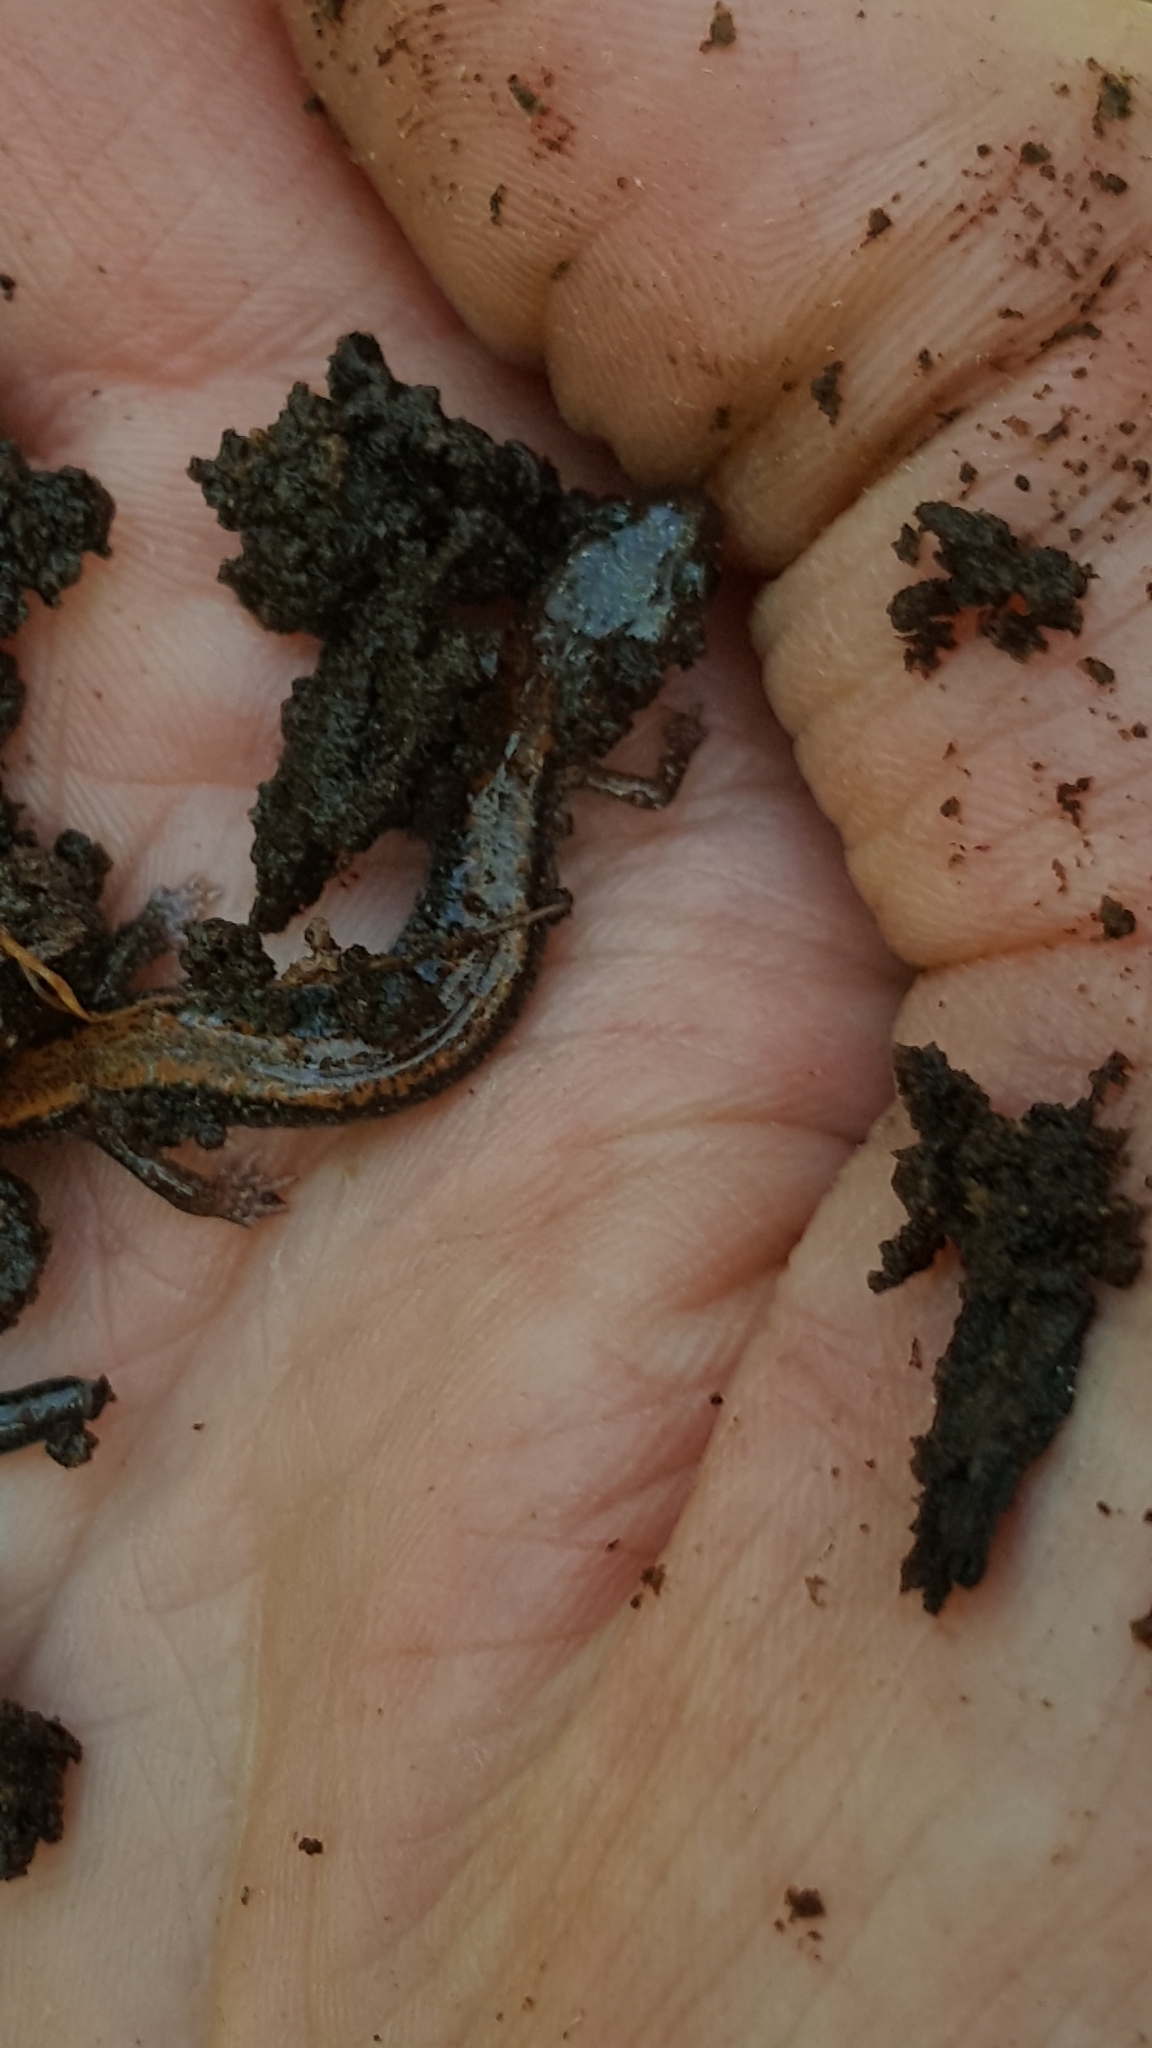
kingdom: Animalia
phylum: Chordata
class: Amphibia
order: Caudata
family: Plethodontidae
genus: Plethodon
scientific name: Plethodon cinereus
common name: Redback salamander
